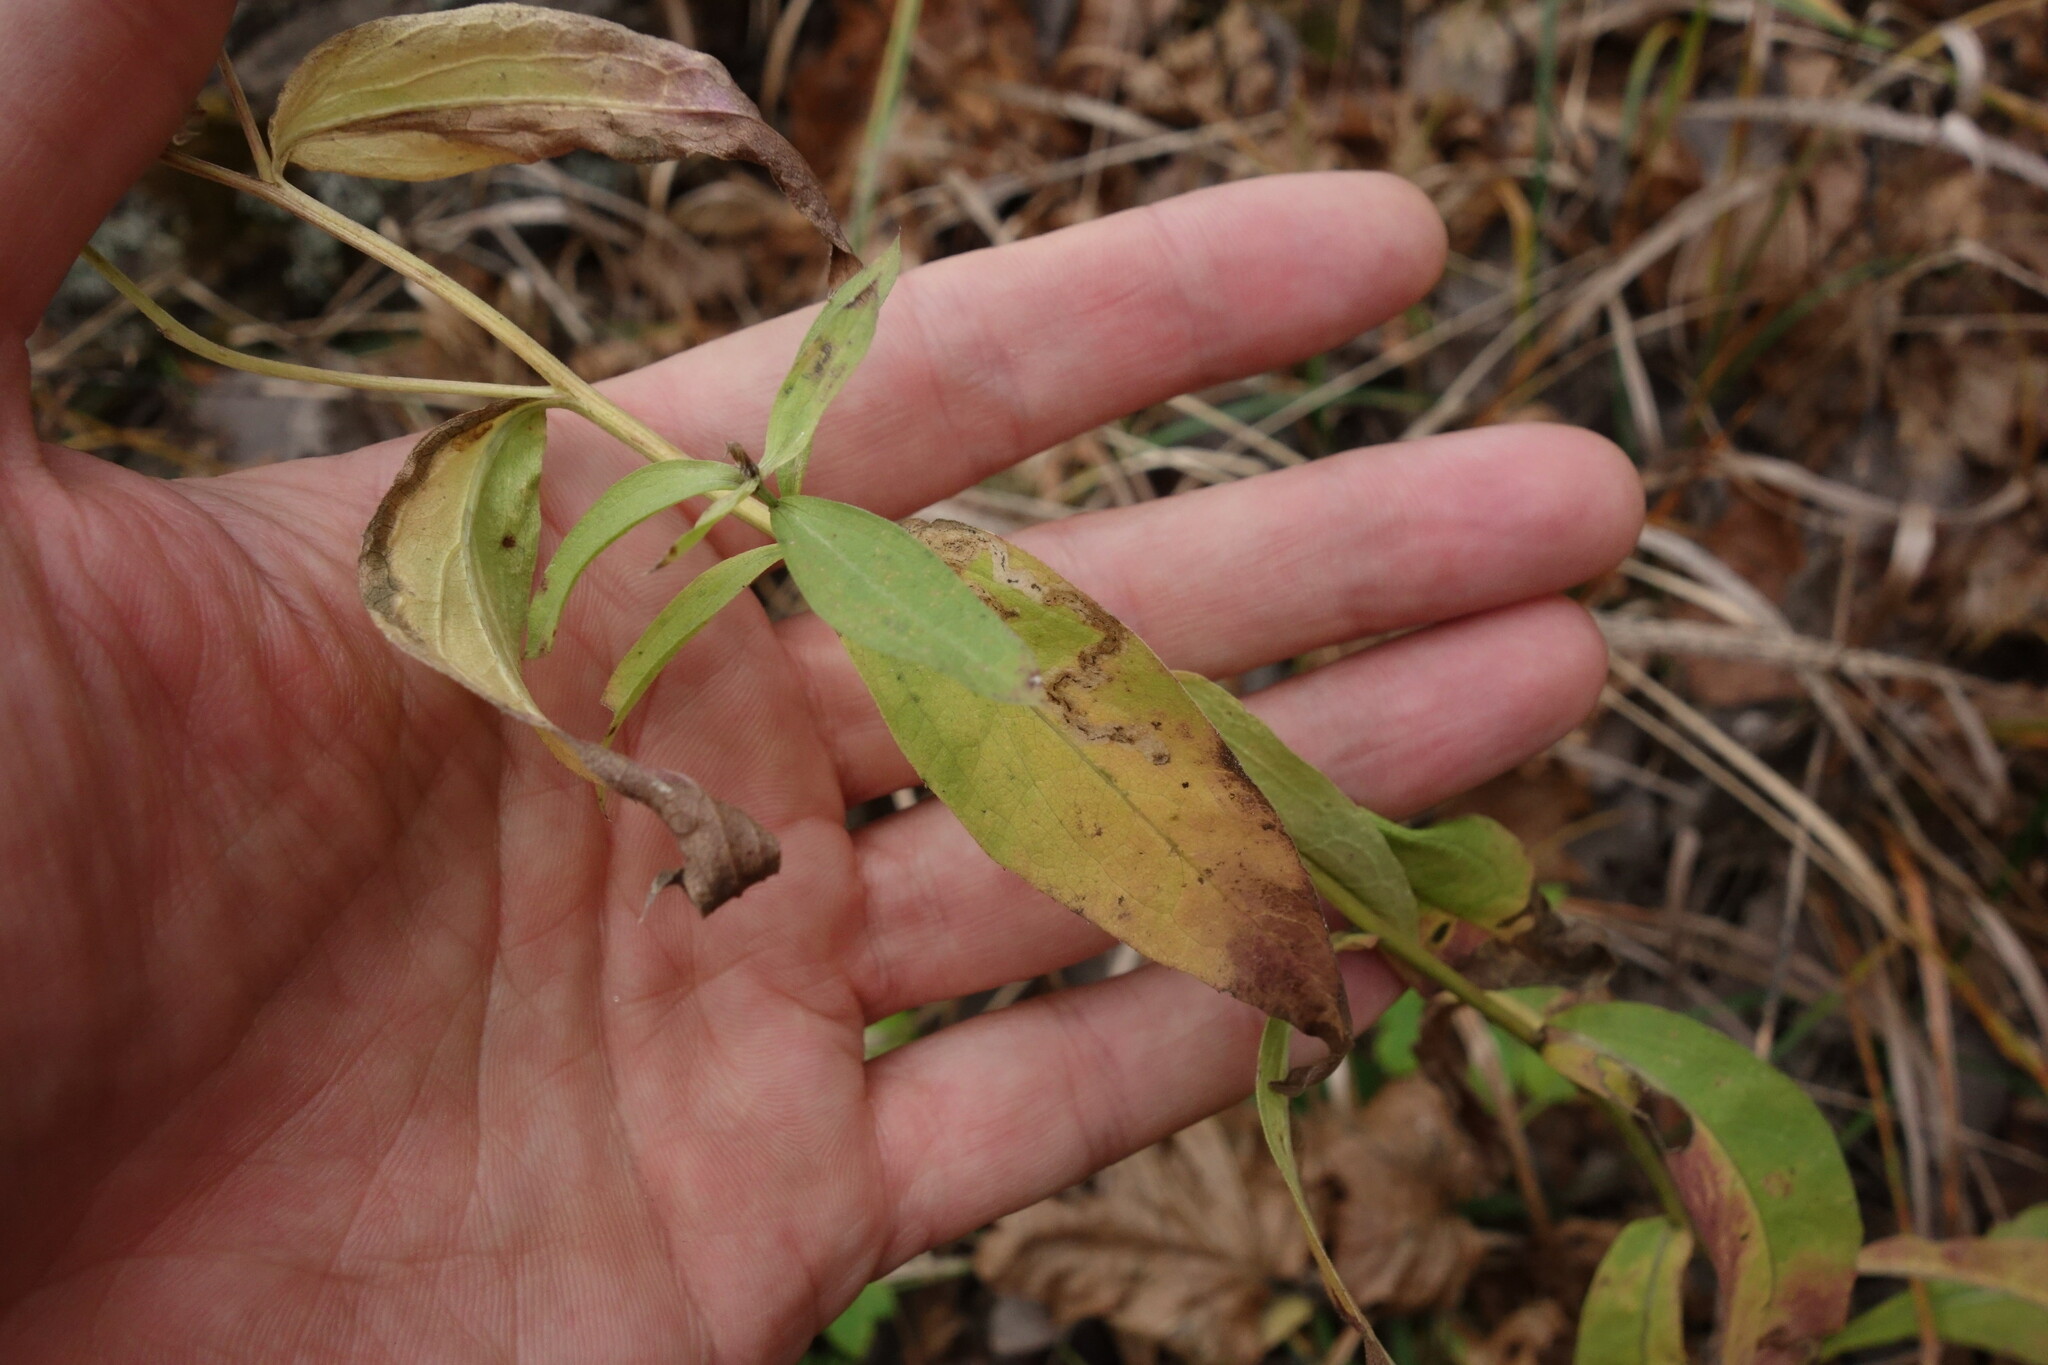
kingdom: Plantae
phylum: Tracheophyta
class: Magnoliopsida
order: Asterales
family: Asteraceae
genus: Centaurea
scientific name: Centaurea pseudophrygia
